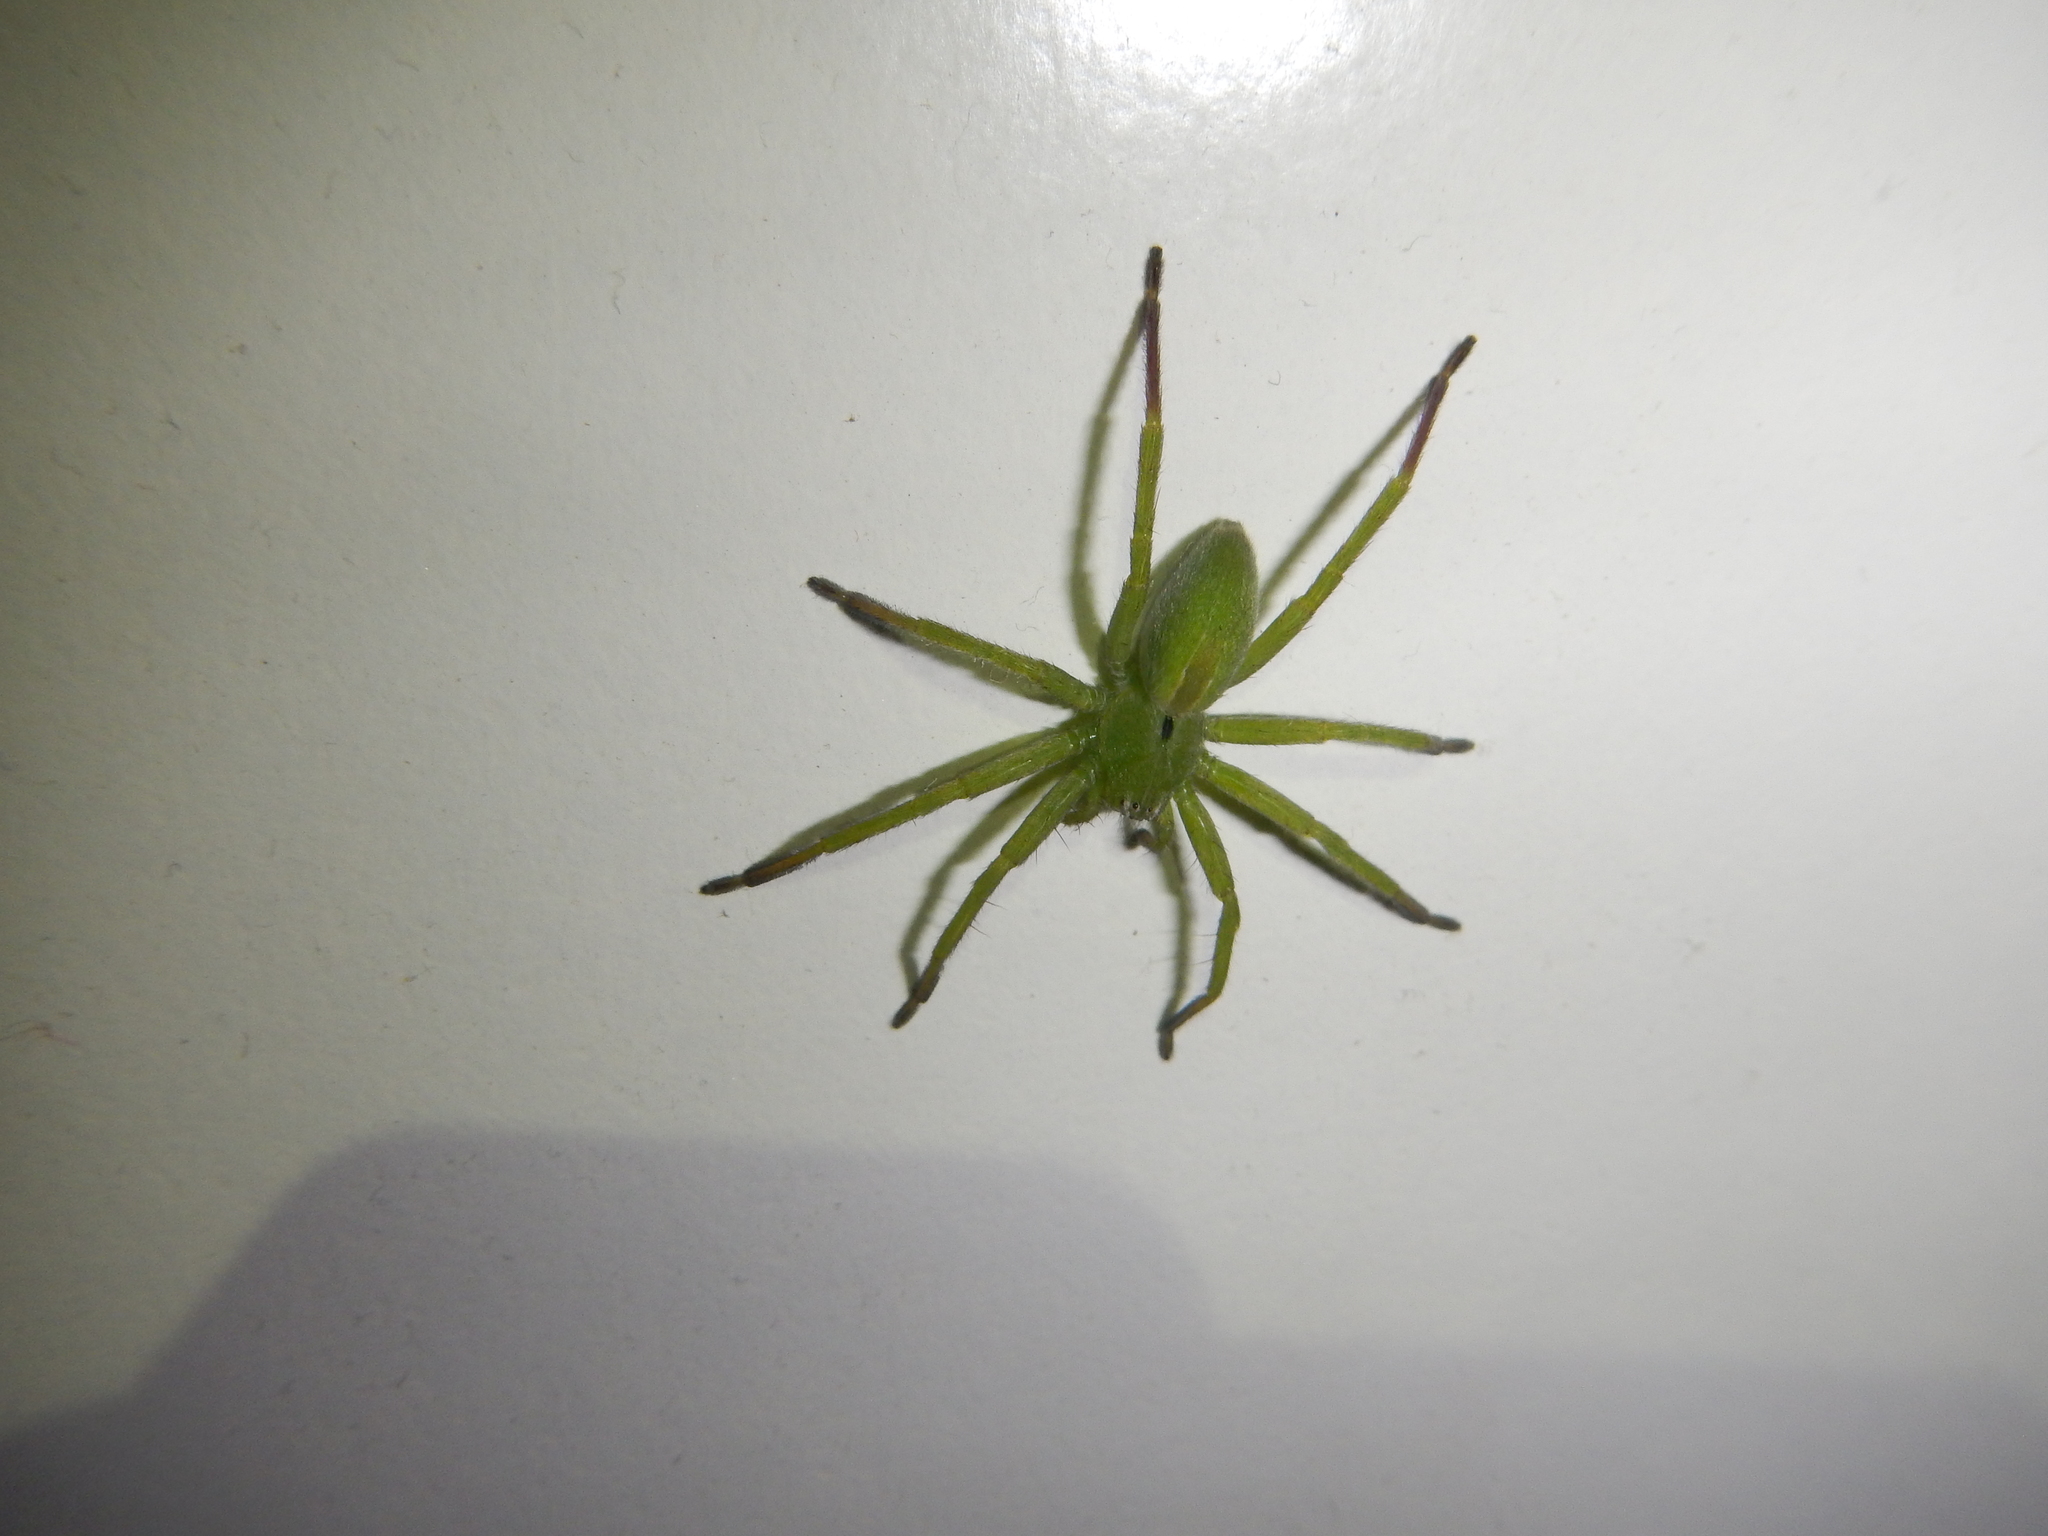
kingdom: Animalia
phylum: Arthropoda
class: Arachnida
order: Araneae
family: Sparassidae
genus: Micrommata
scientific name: Micrommata ligurina
